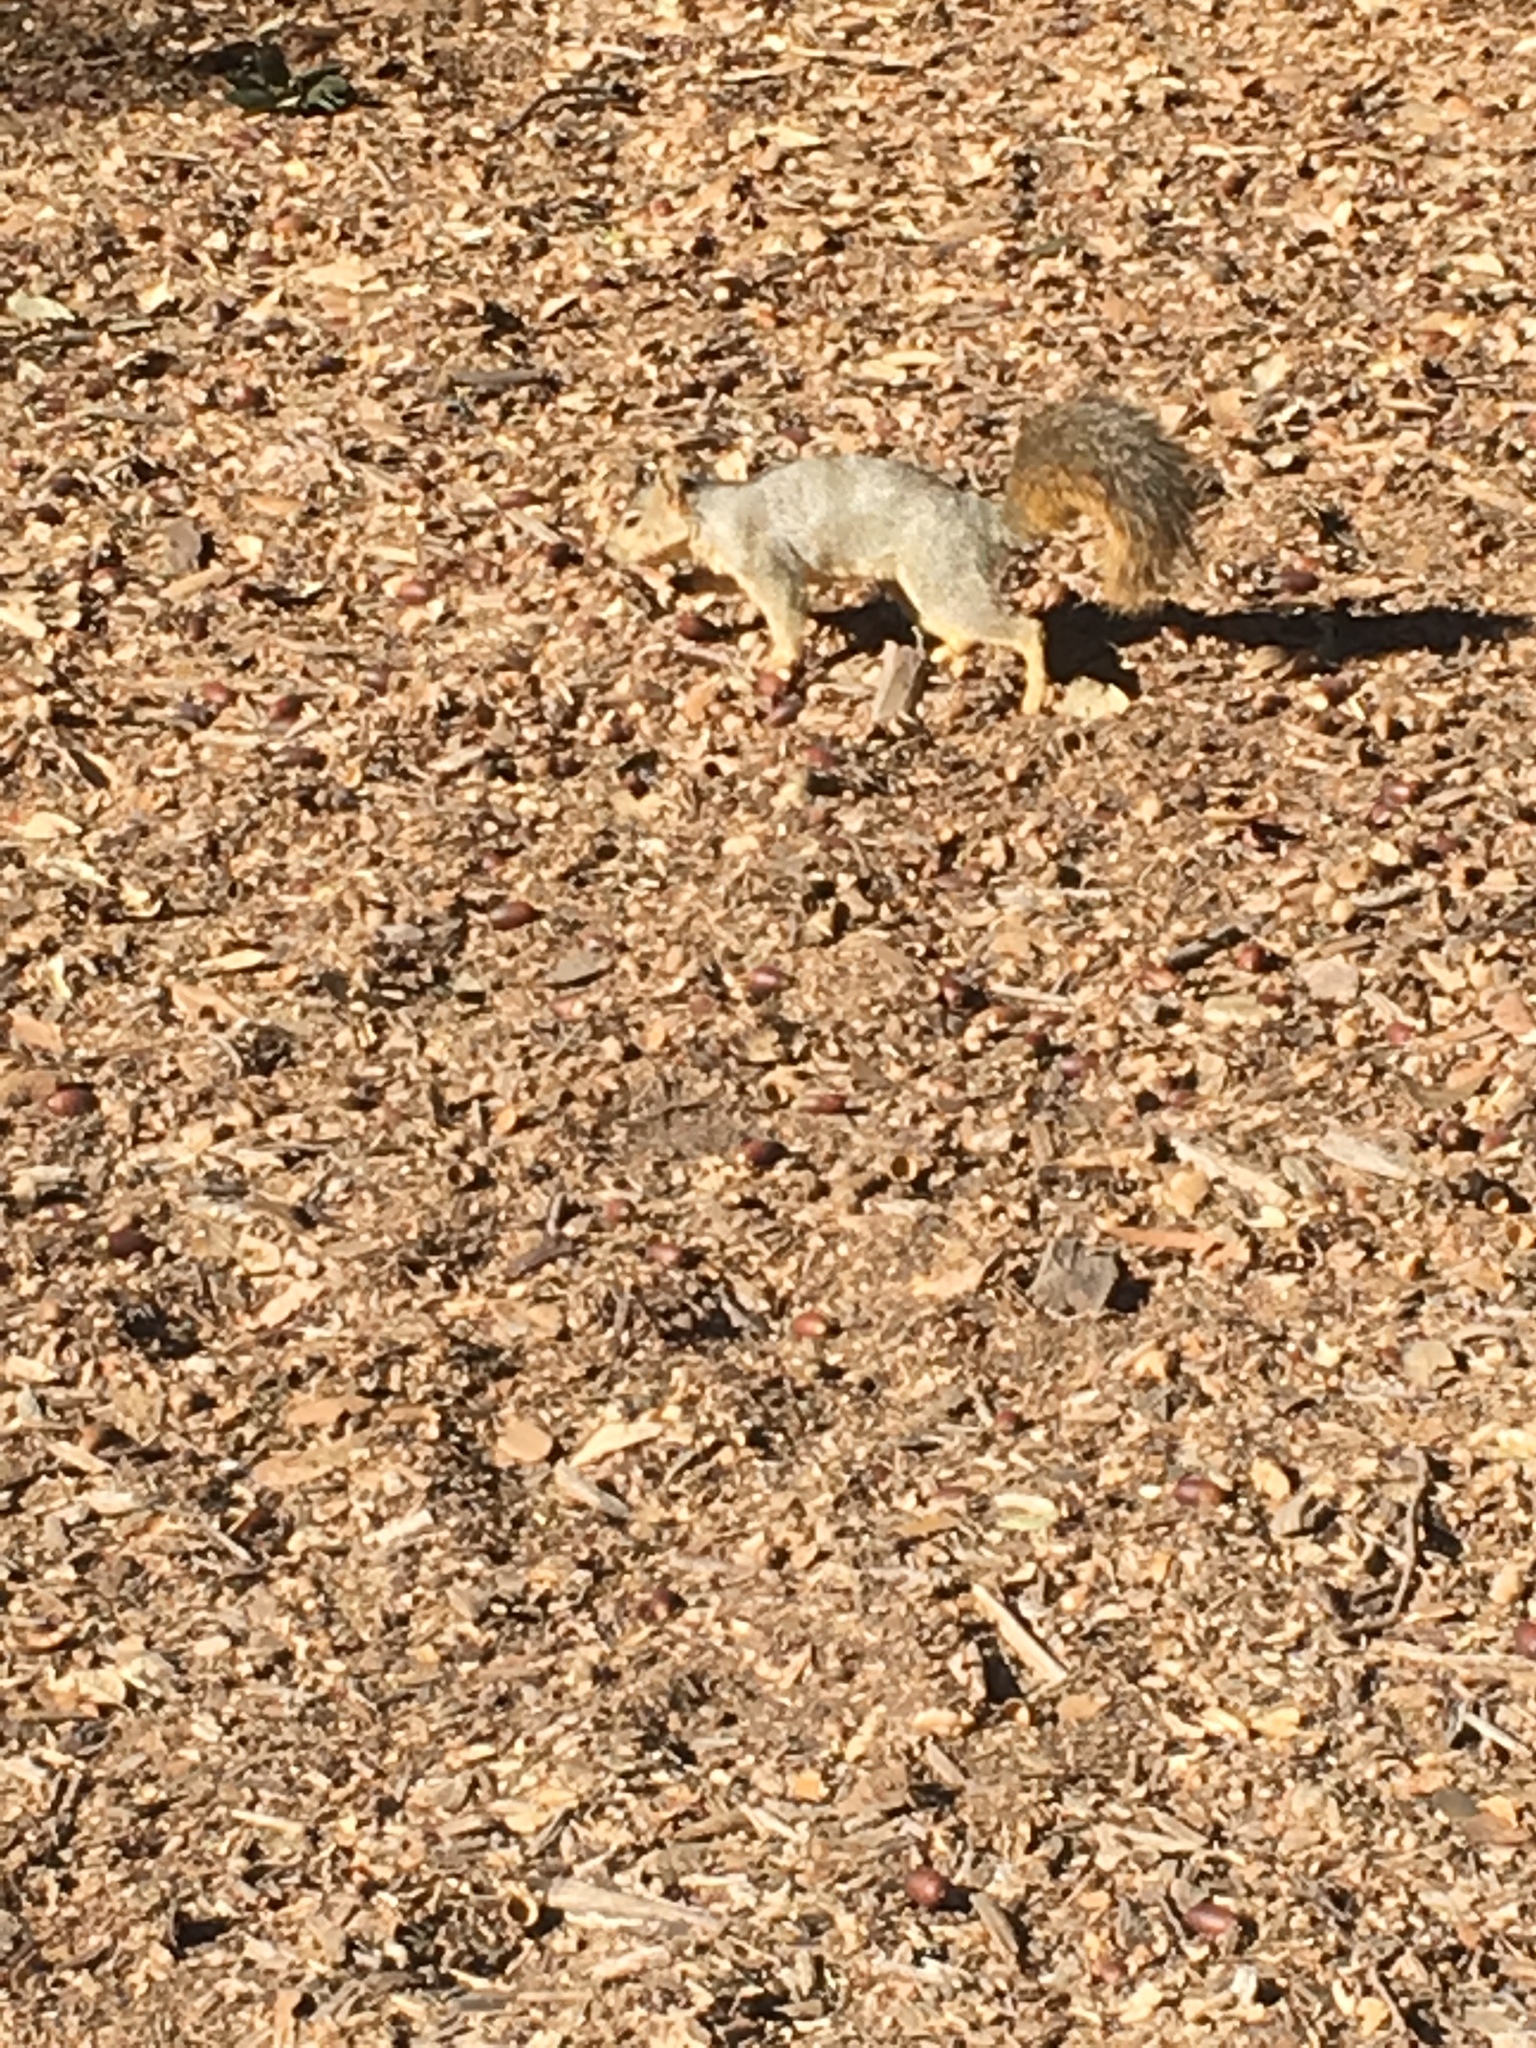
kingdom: Animalia
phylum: Chordata
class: Mammalia
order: Rodentia
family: Sciuridae
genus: Sciurus
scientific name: Sciurus niger
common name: Fox squirrel
